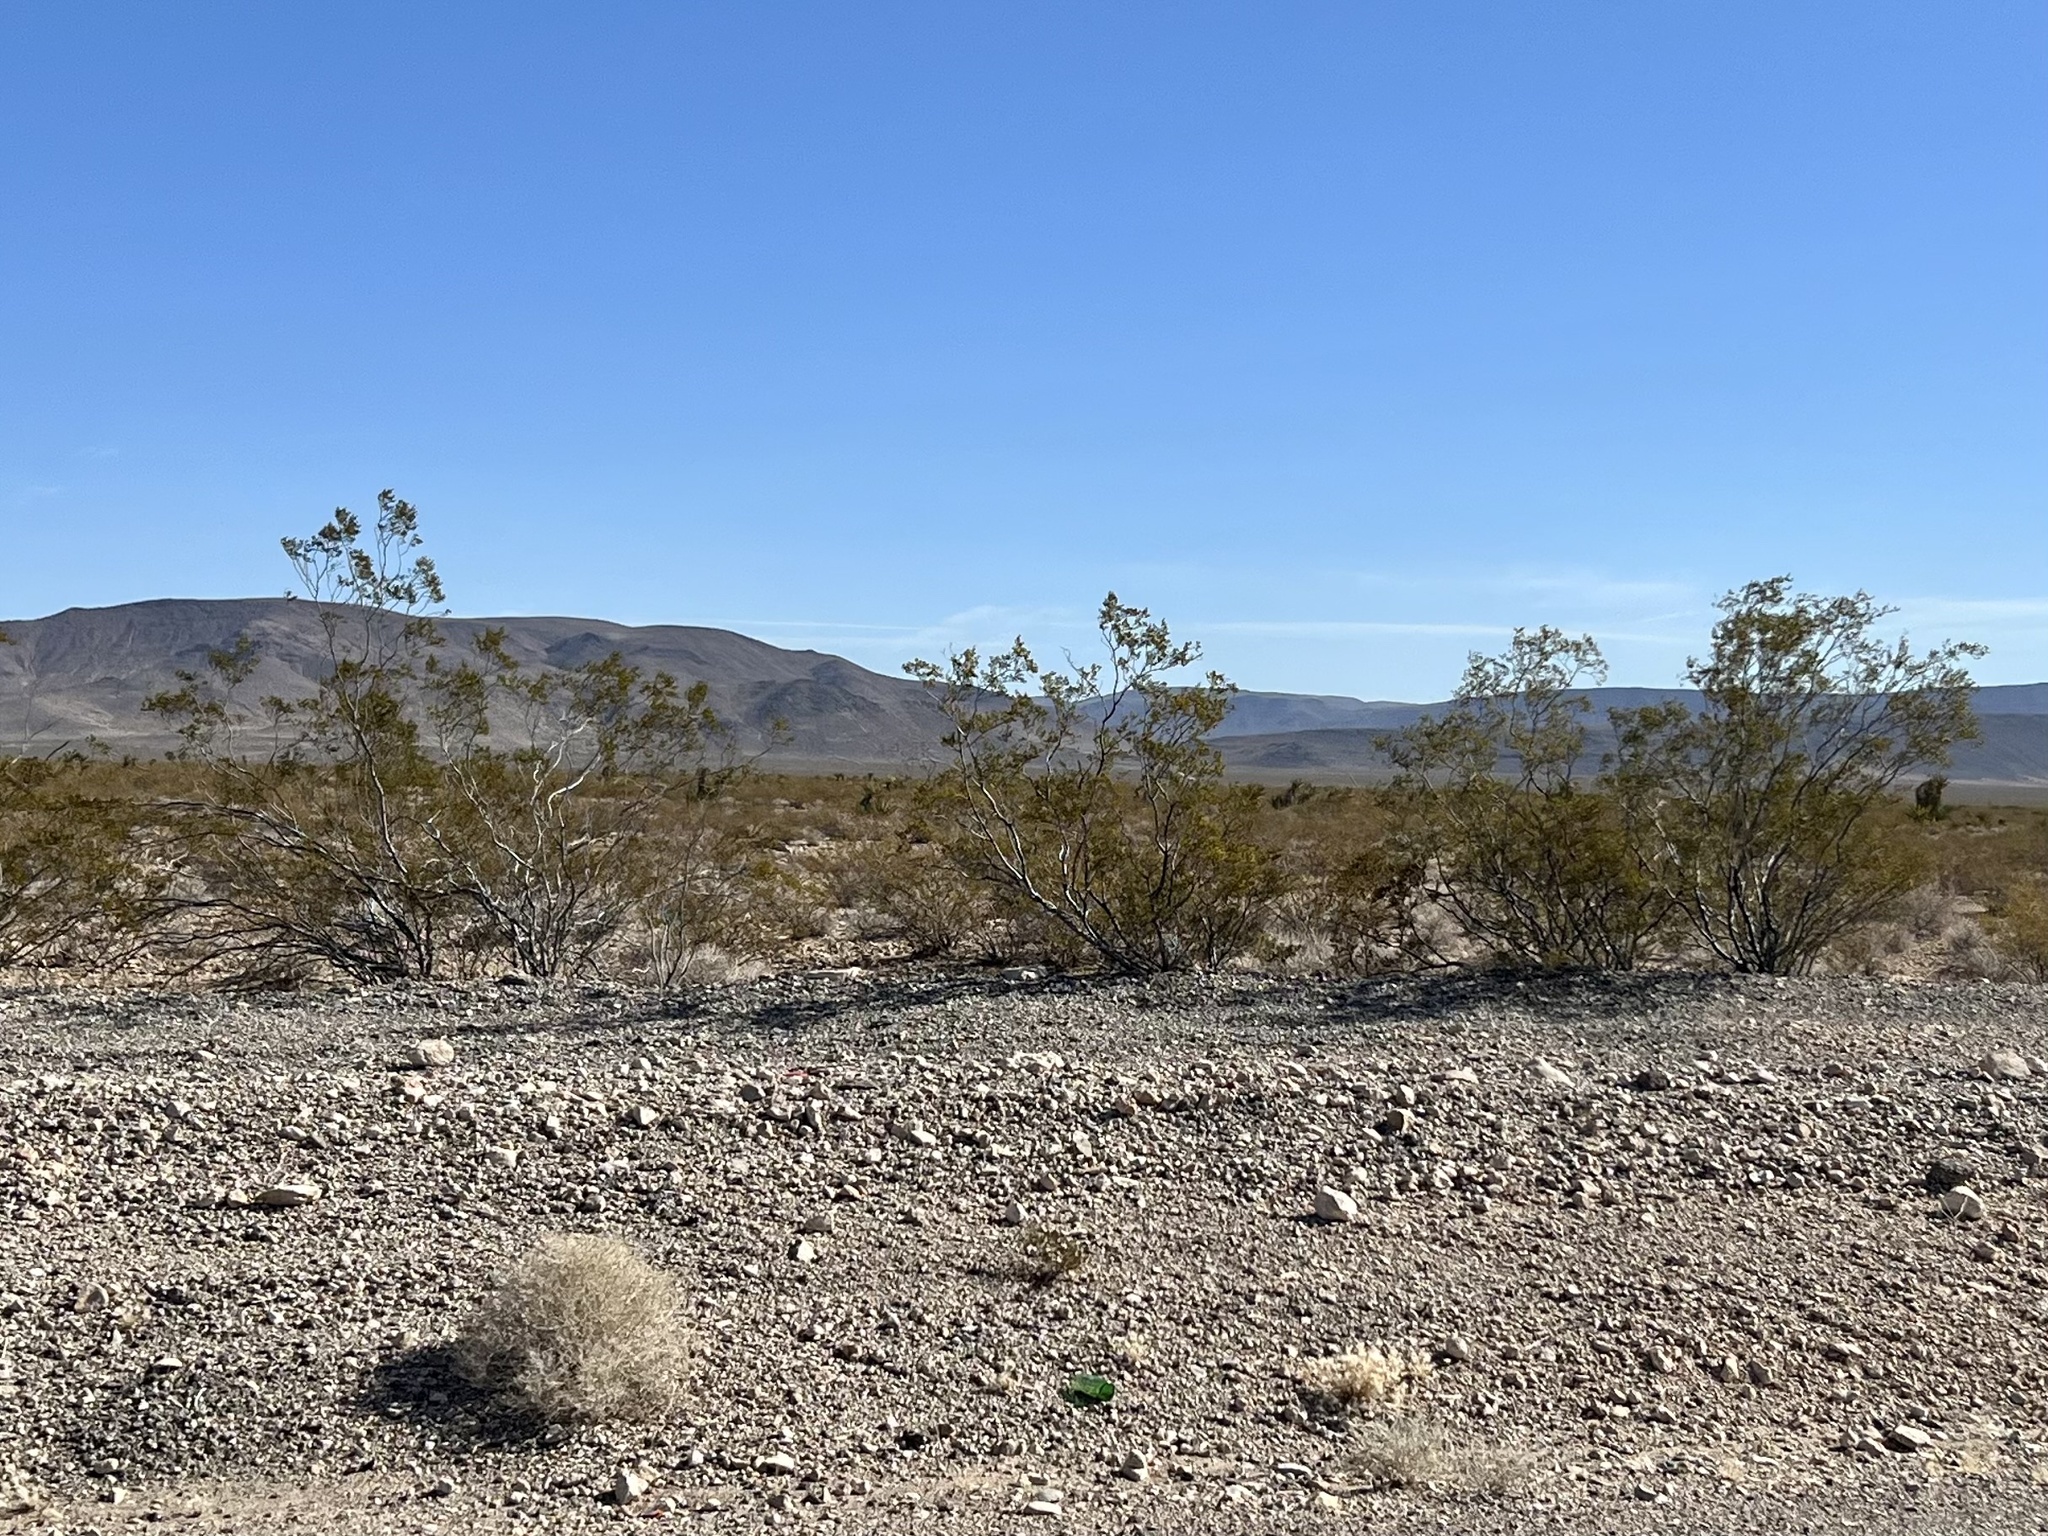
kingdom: Plantae
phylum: Tracheophyta
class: Magnoliopsida
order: Zygophyllales
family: Zygophyllaceae
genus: Larrea
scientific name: Larrea tridentata
